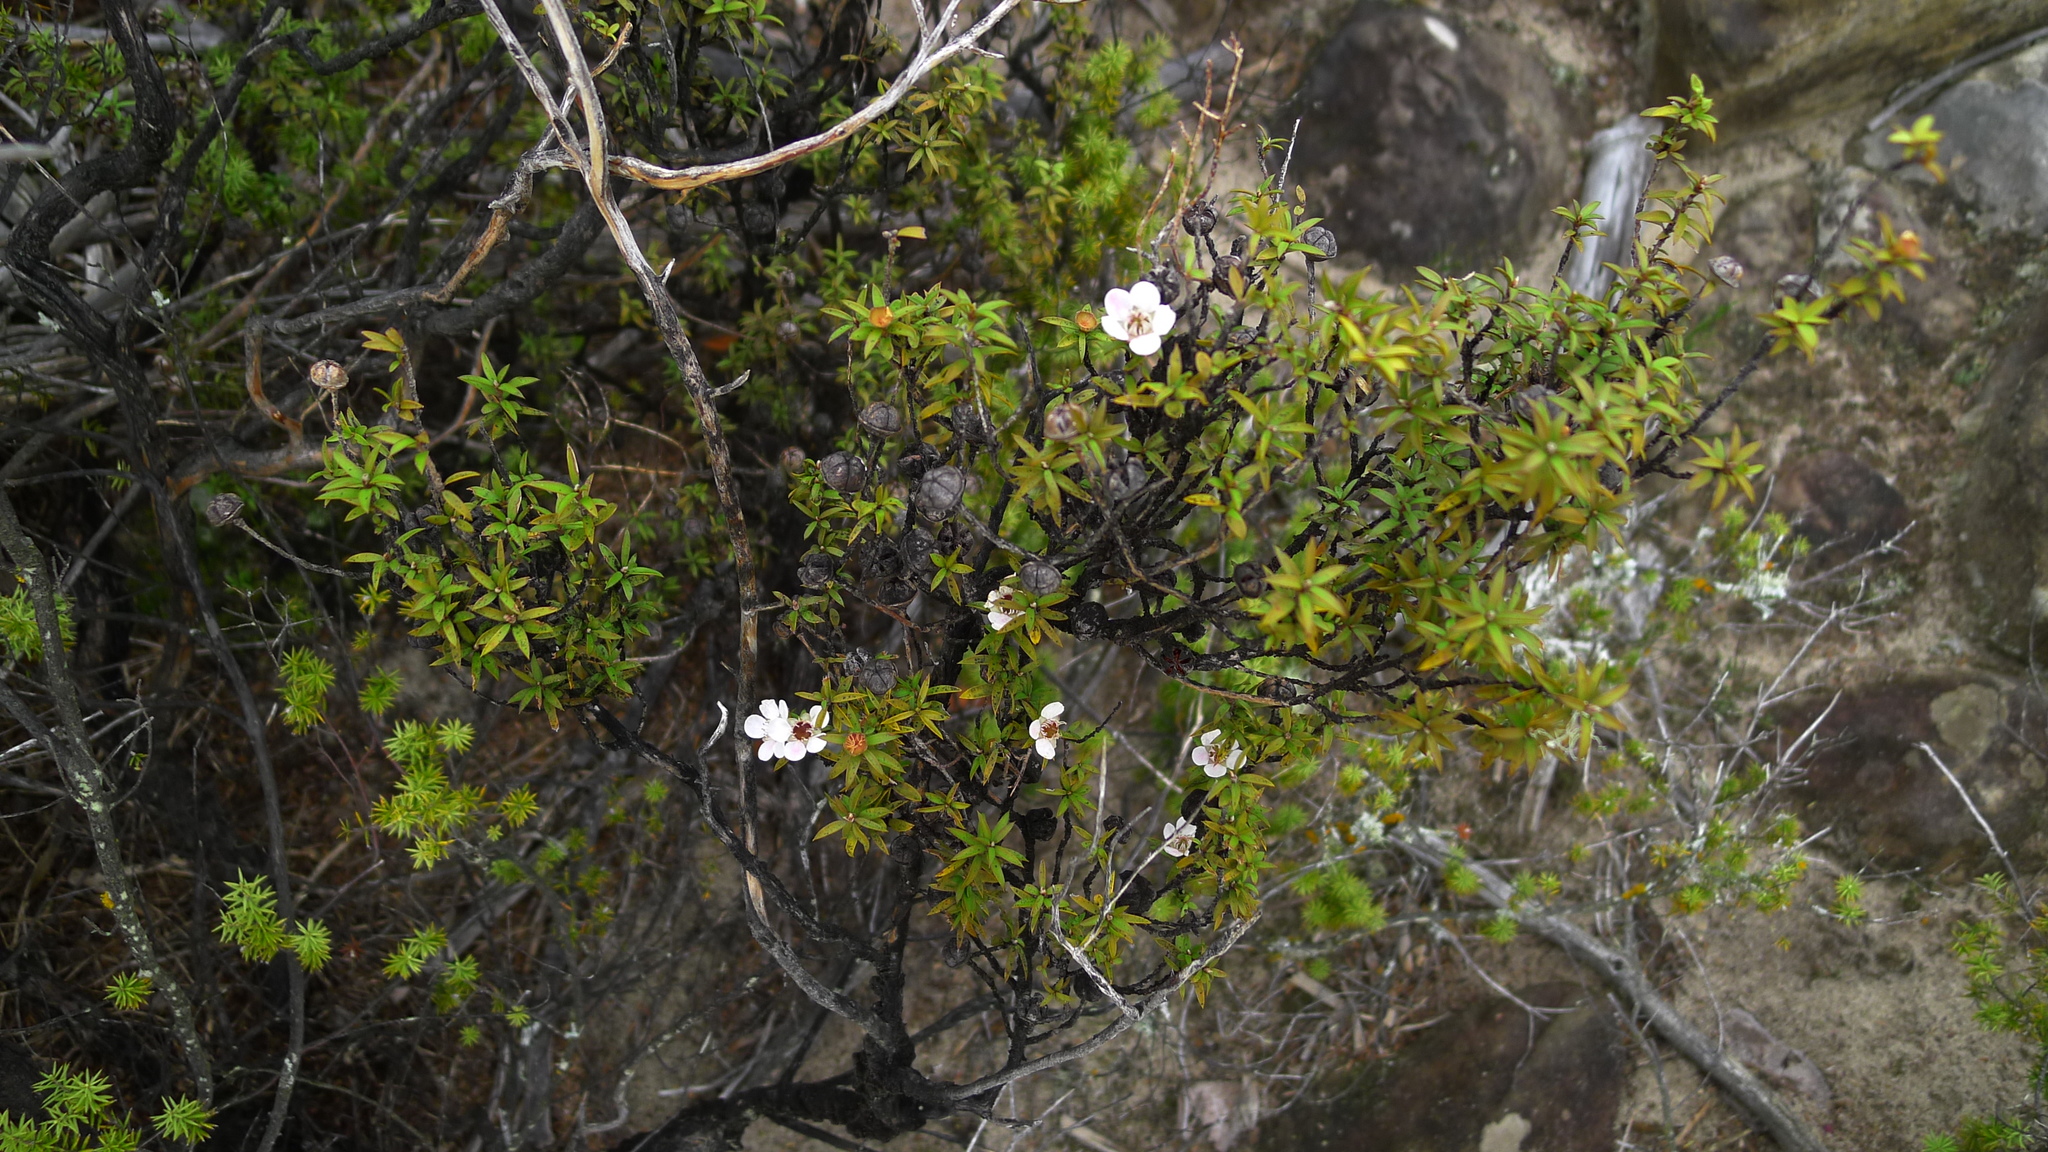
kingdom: Plantae
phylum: Tracheophyta
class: Magnoliopsida
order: Myrtales
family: Myrtaceae
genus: Leptospermum
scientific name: Leptospermum scoparium
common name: Broom tea-tree
